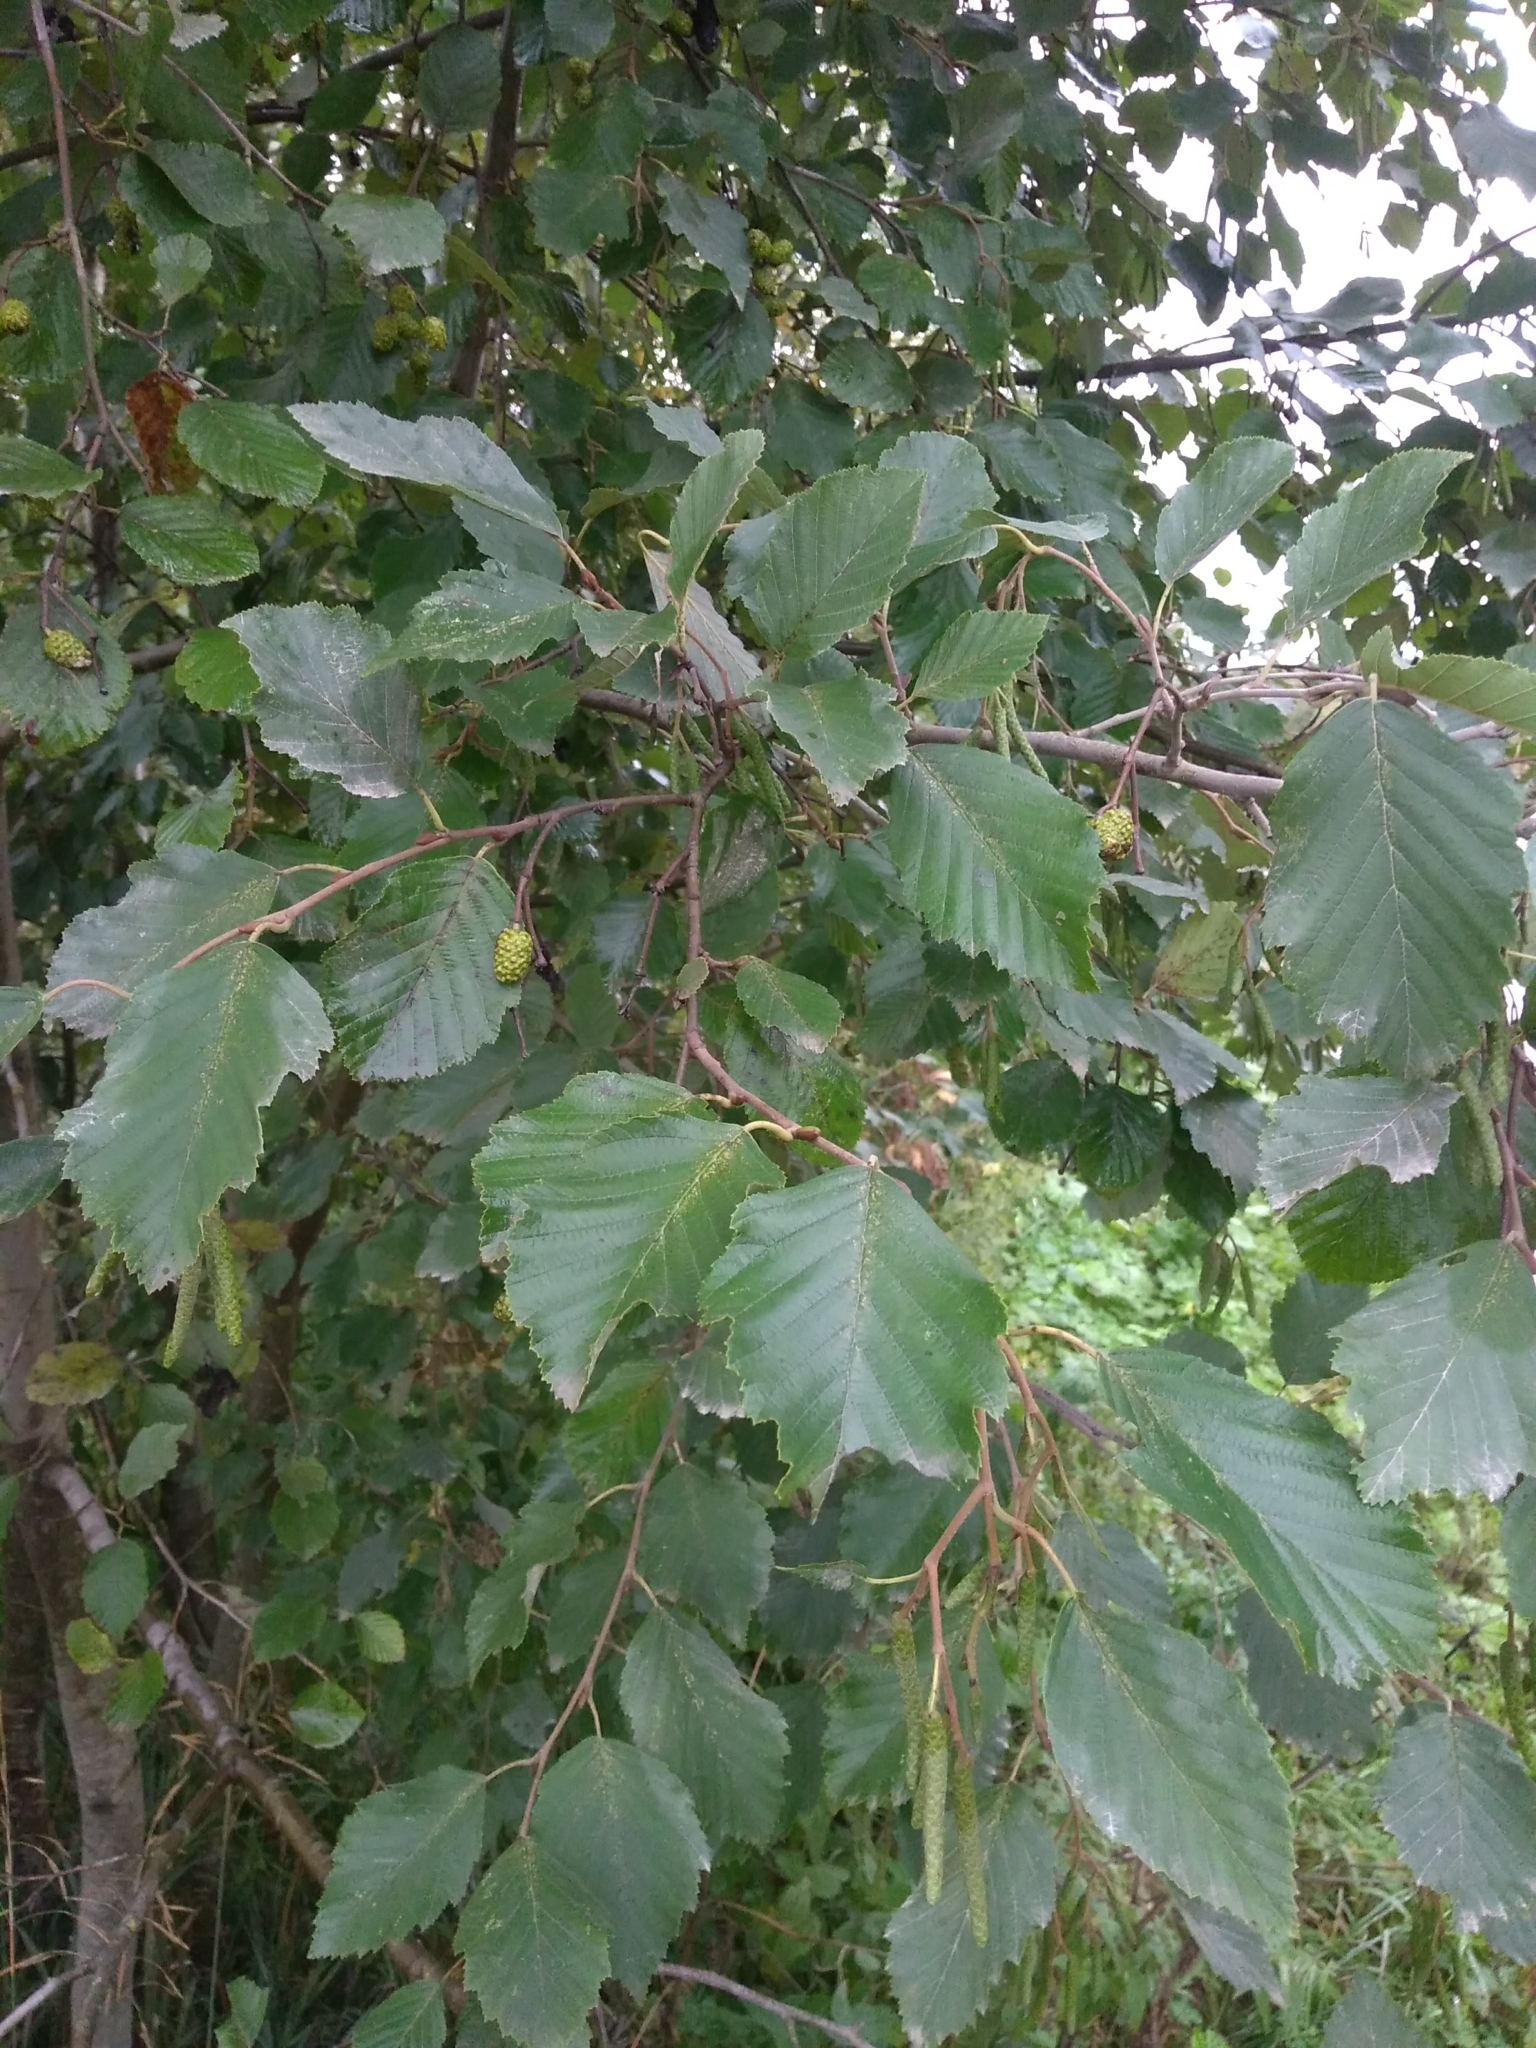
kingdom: Plantae
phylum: Tracheophyta
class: Magnoliopsida
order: Fagales
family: Betulaceae
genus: Alnus
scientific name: Alnus incana
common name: Grey alder
